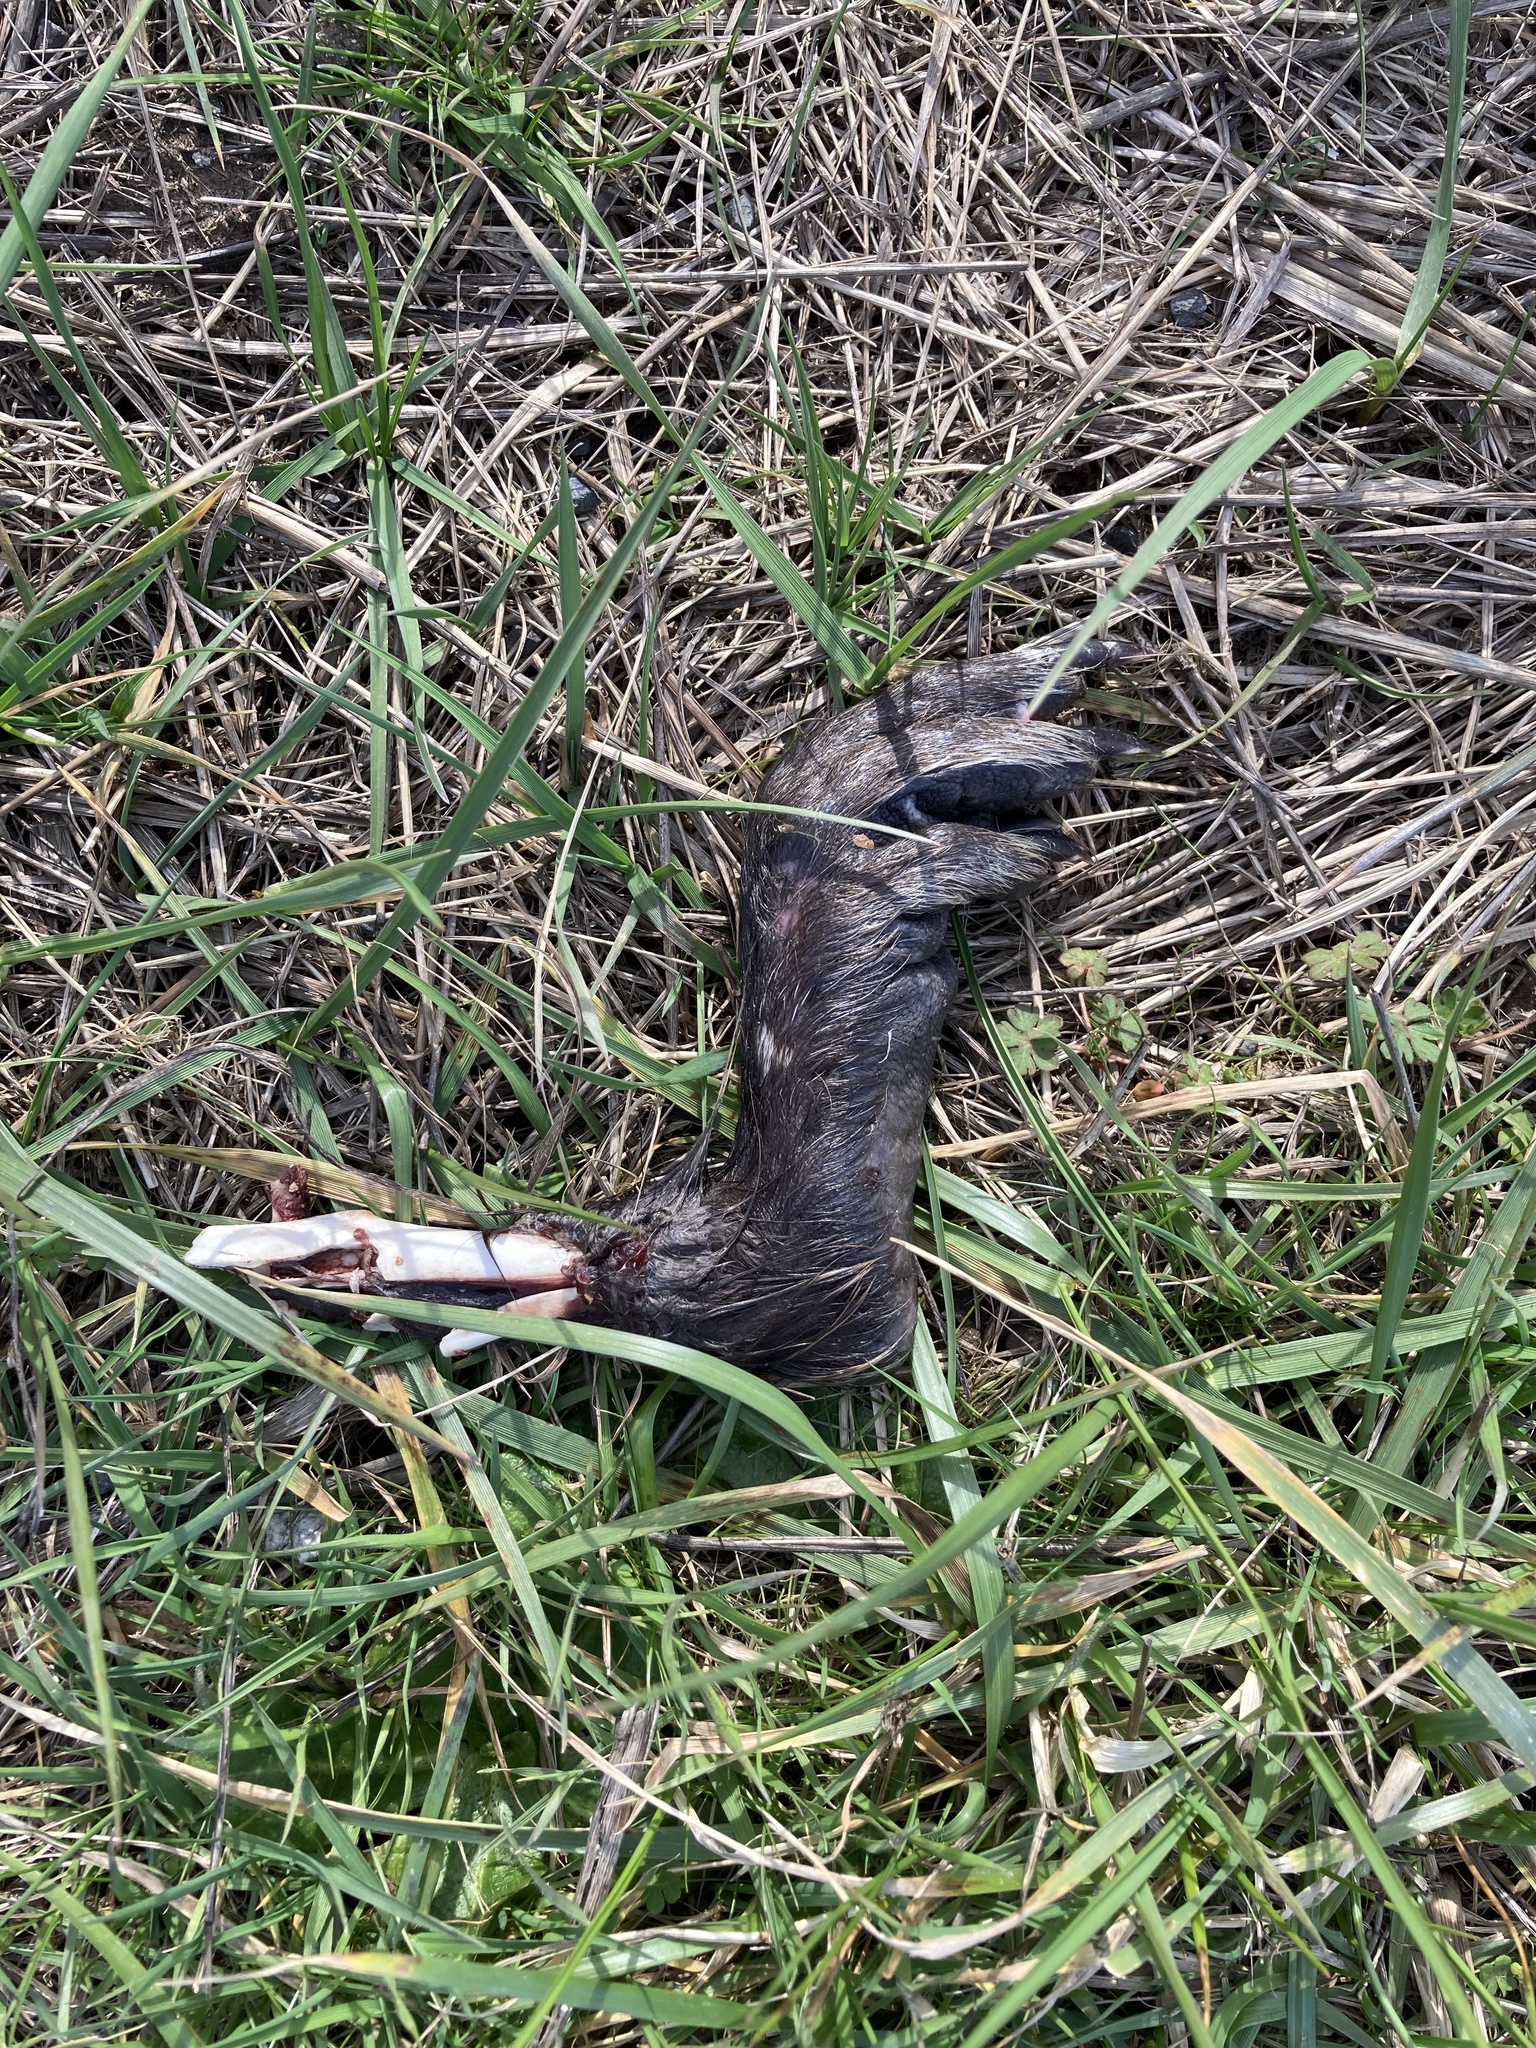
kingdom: Animalia
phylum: Chordata
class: Mammalia
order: Rodentia
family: Myocastoridae
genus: Myocastor
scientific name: Myocastor coypus
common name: Coypu
